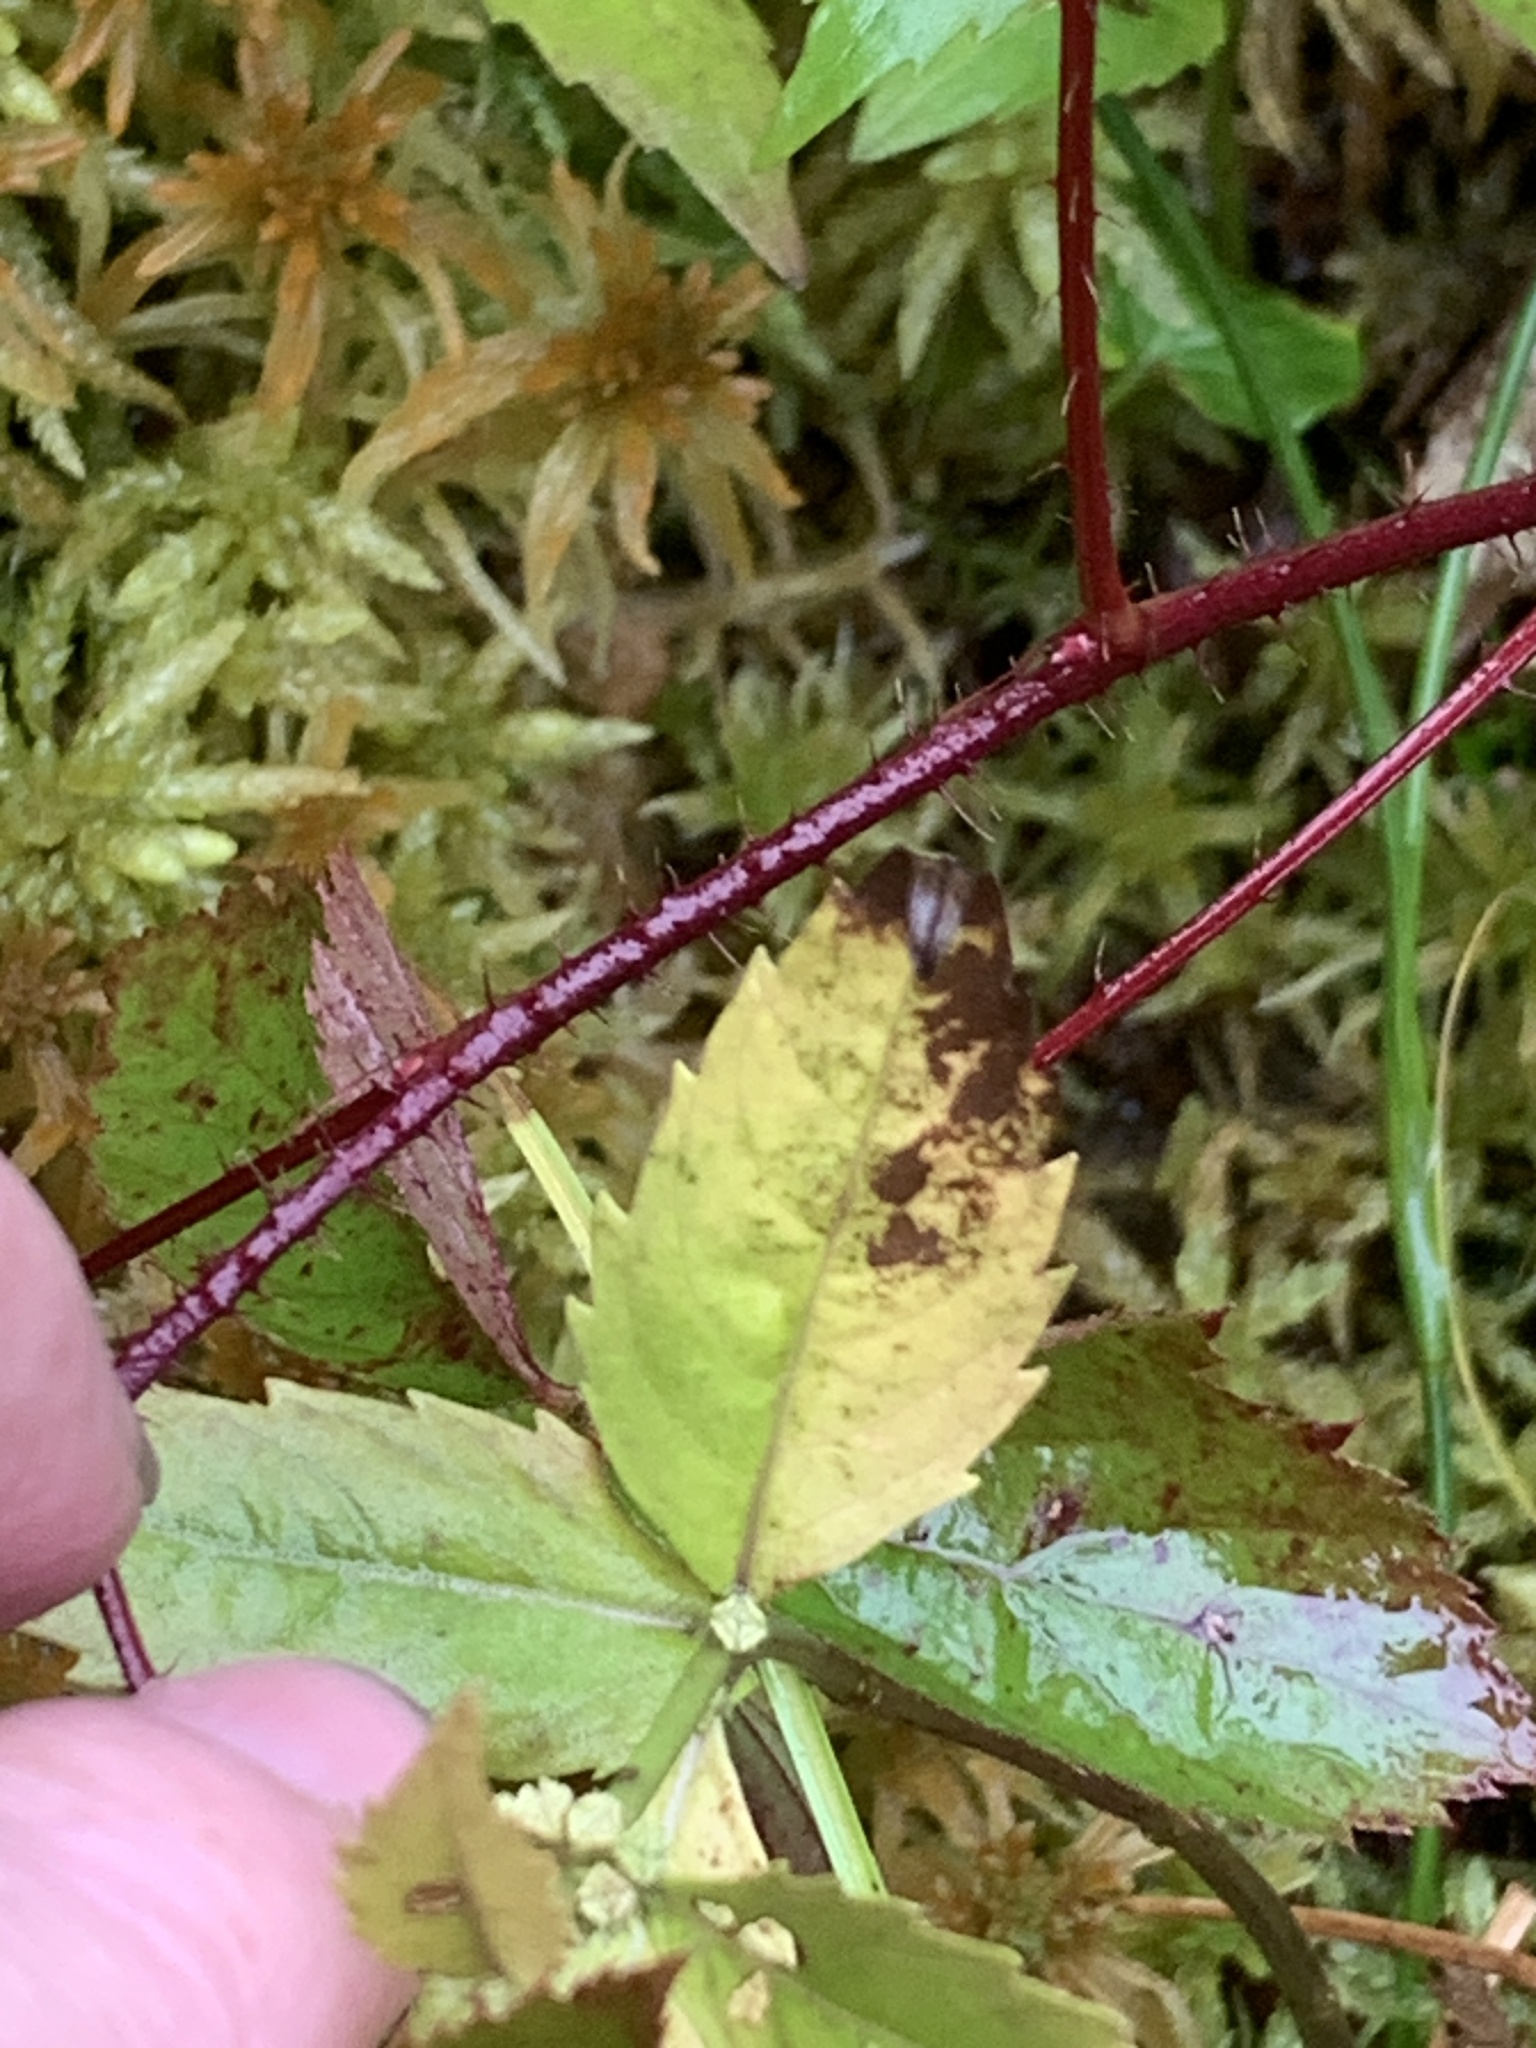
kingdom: Plantae
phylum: Tracheophyta
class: Magnoliopsida
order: Rosales
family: Rosaceae
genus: Rubus
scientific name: Rubus hispidus
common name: Running blackberry
